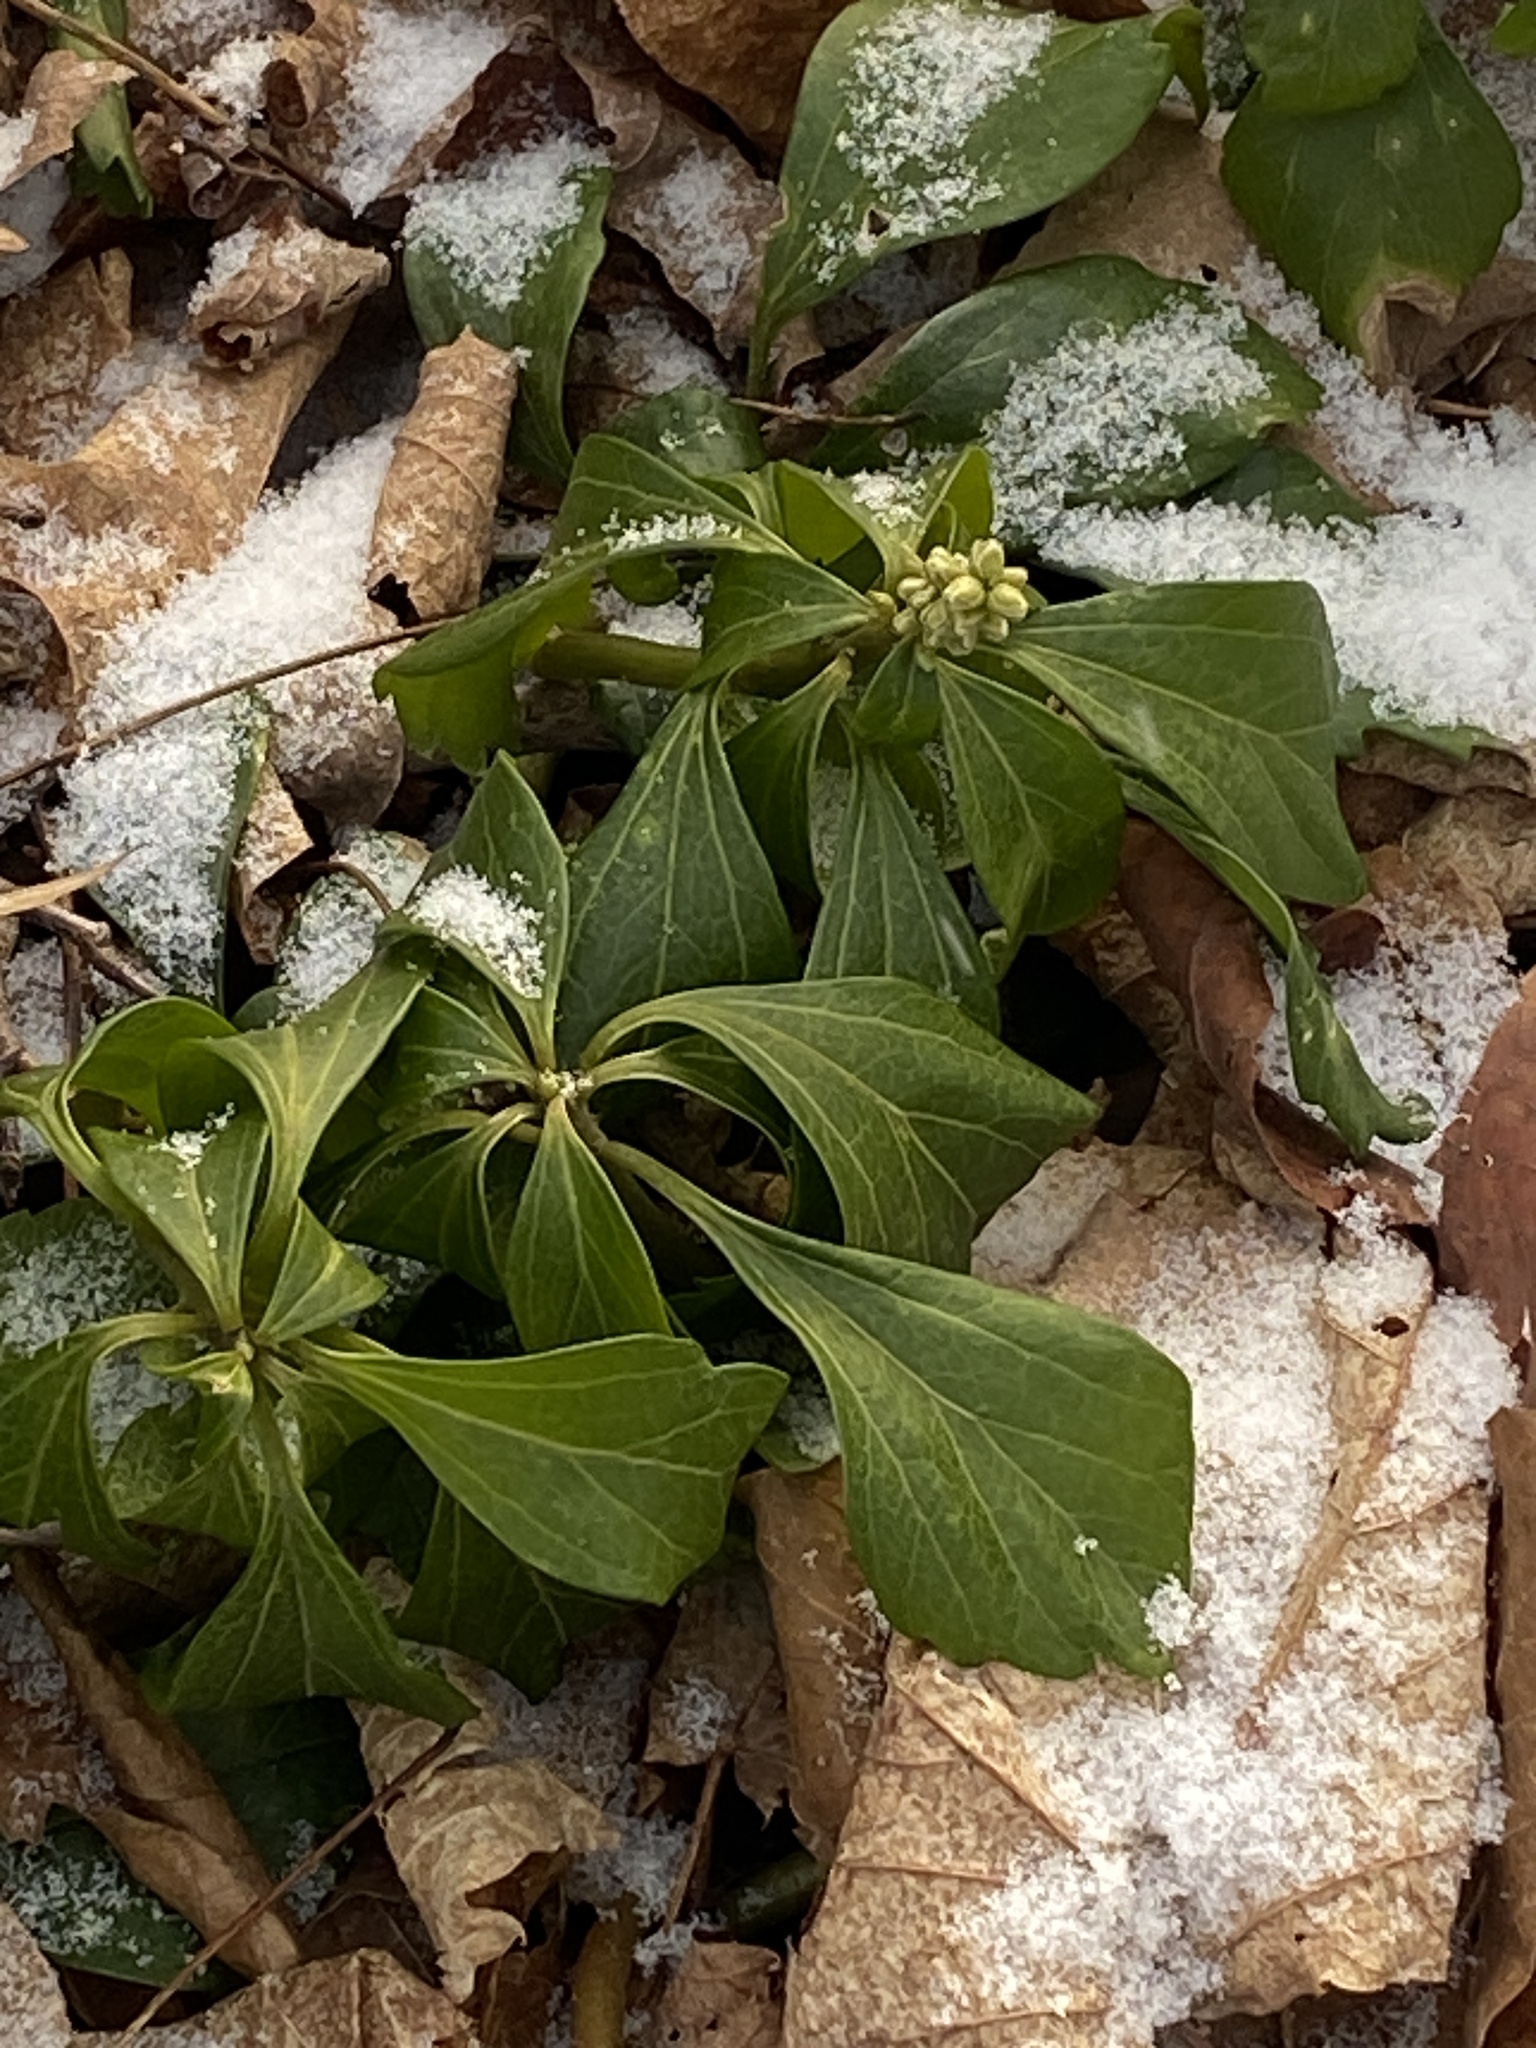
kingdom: Plantae
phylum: Tracheophyta
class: Magnoliopsida
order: Buxales
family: Buxaceae
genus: Pachysandra
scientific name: Pachysandra terminalis
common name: Japanese pachysandra
